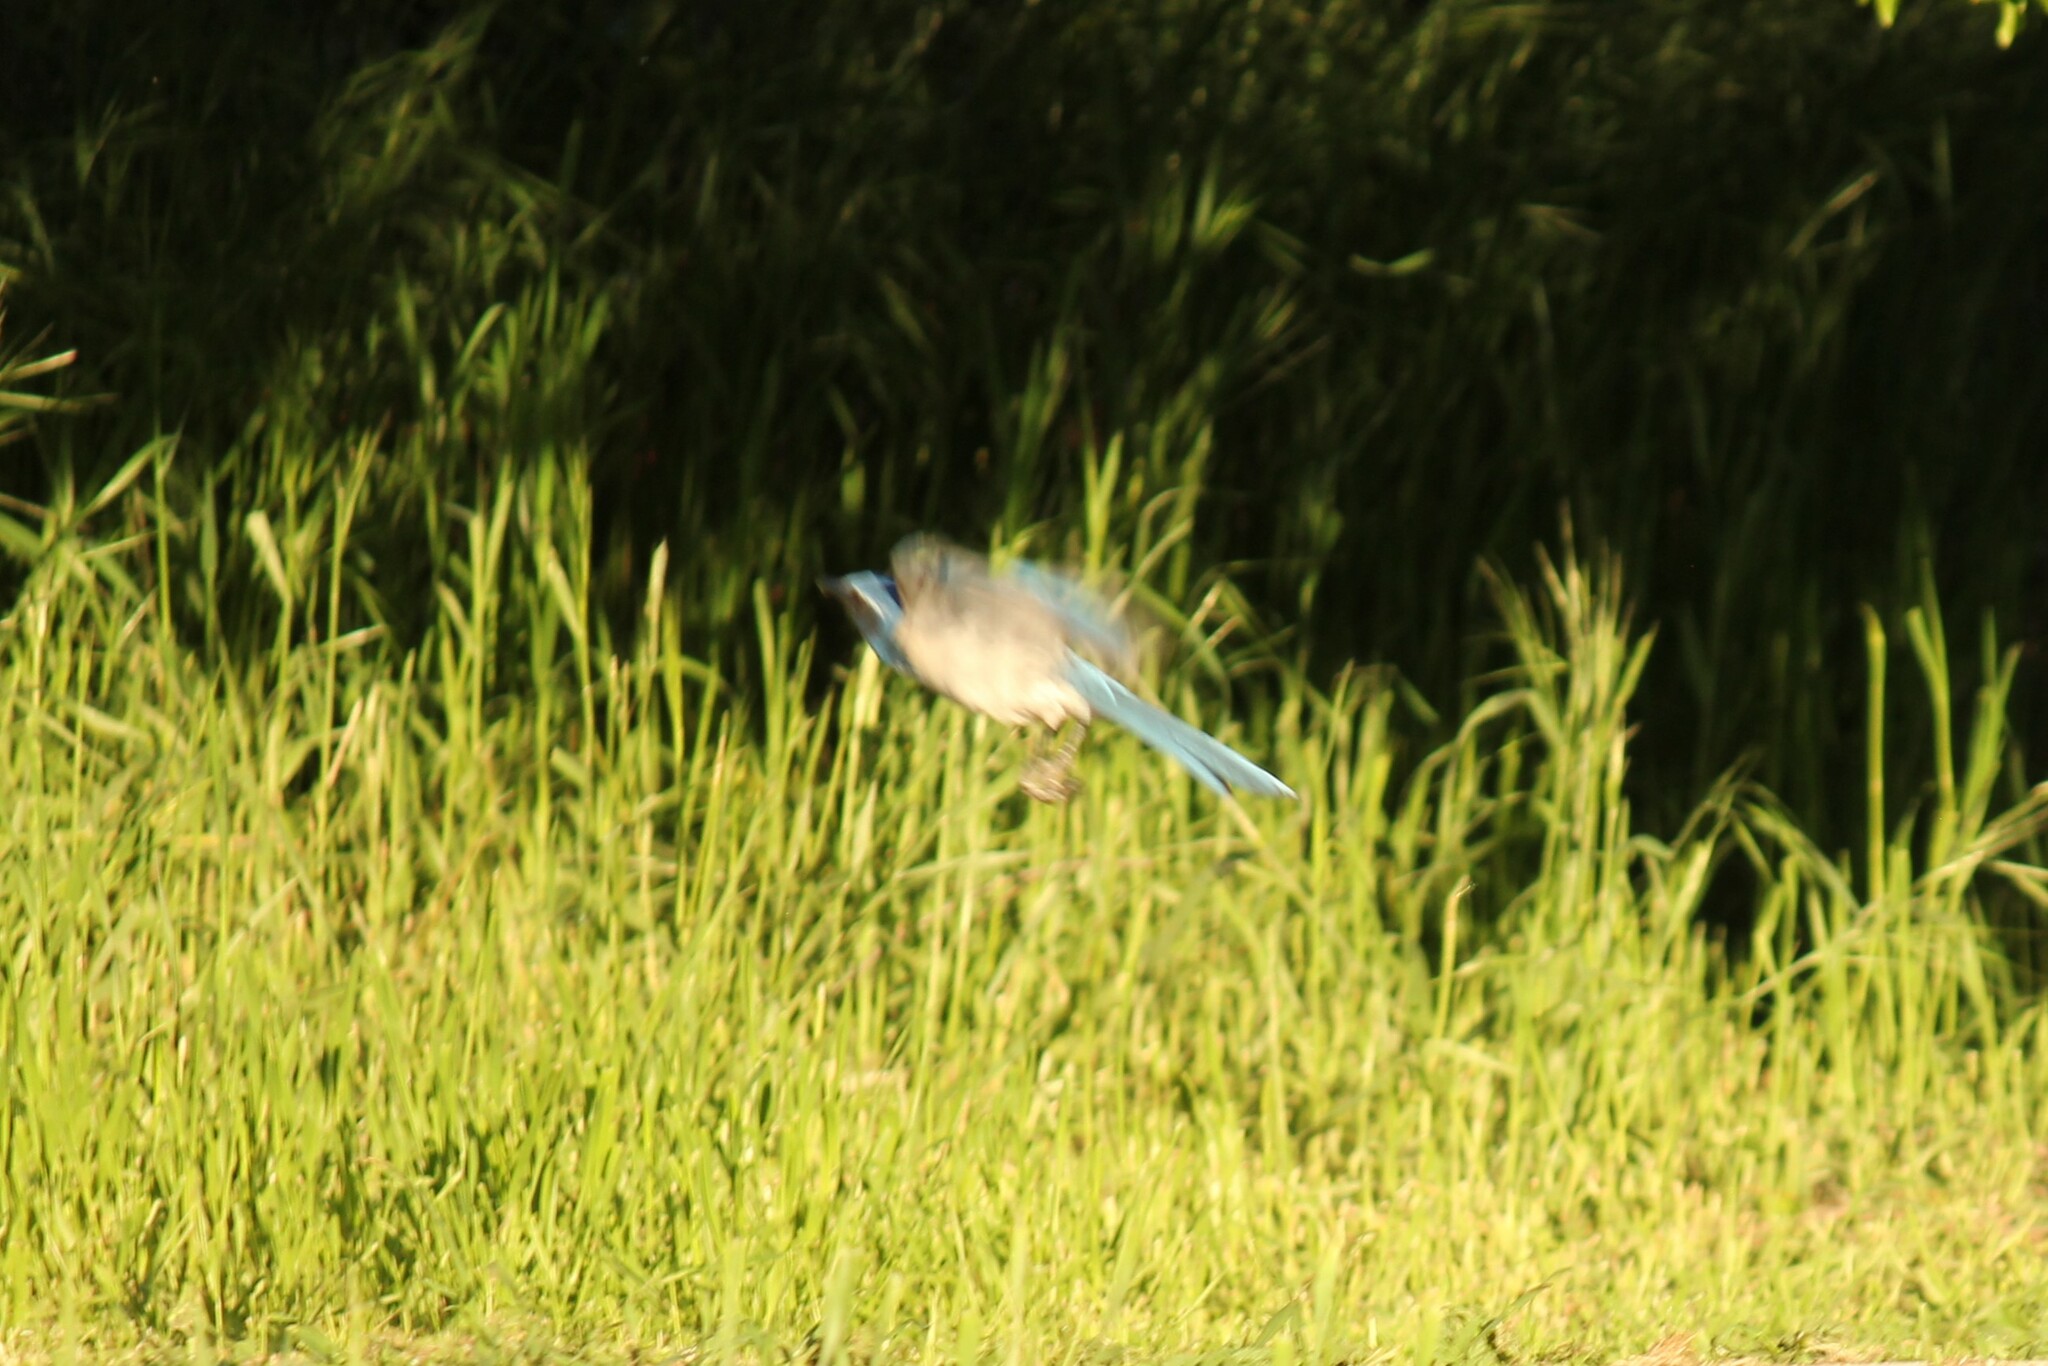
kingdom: Animalia
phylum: Chordata
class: Aves
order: Passeriformes
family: Corvidae
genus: Aphelocoma
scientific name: Aphelocoma californica
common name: California scrub-jay
